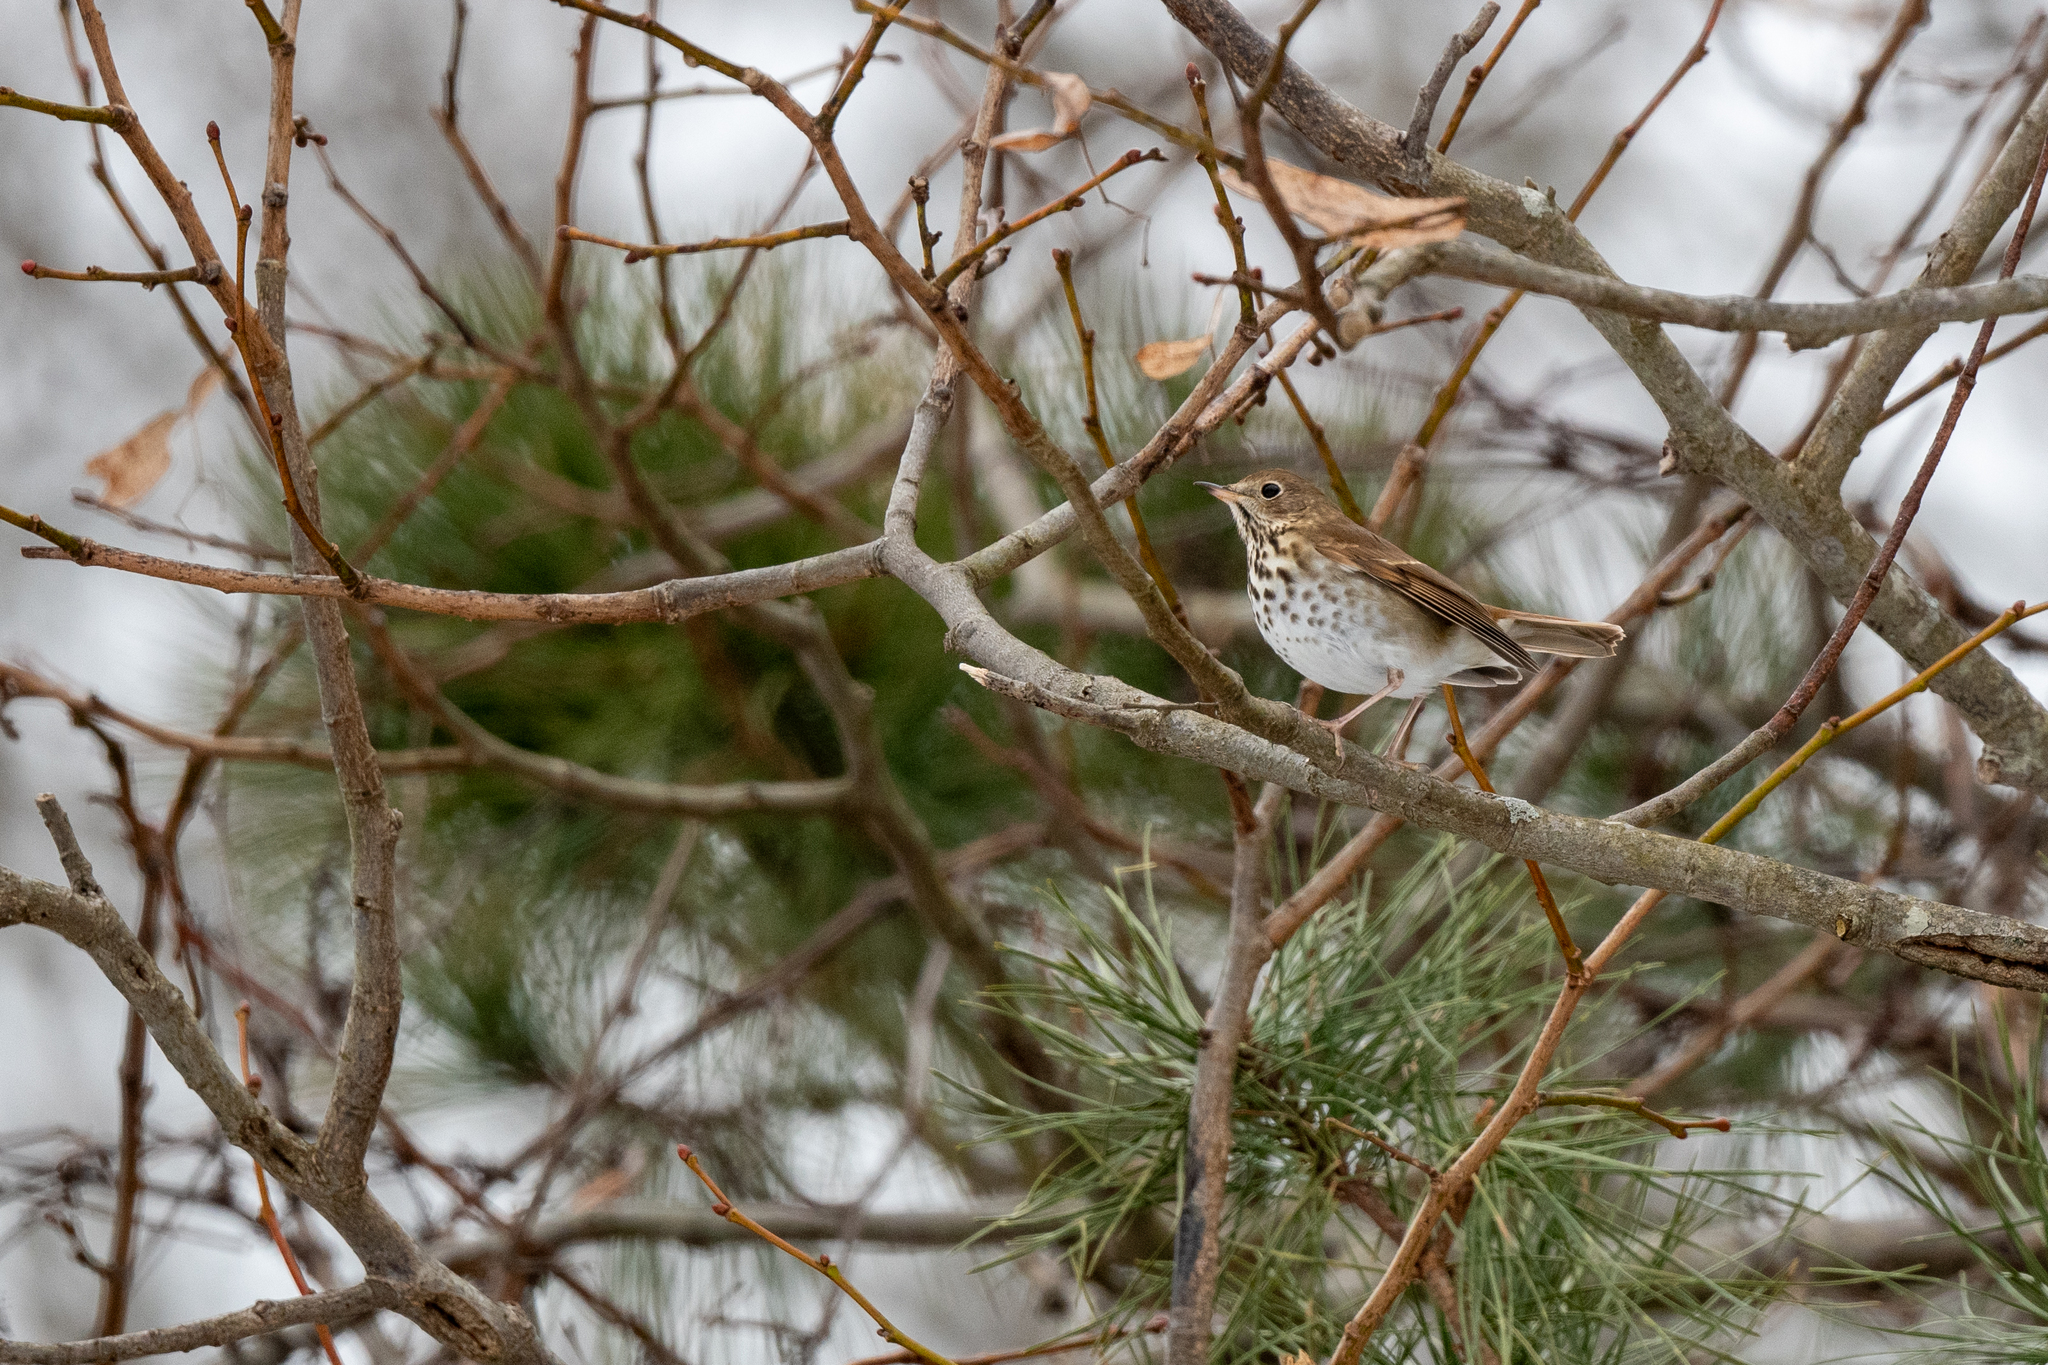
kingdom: Animalia
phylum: Chordata
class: Aves
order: Passeriformes
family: Turdidae
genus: Catharus
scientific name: Catharus guttatus
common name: Hermit thrush
